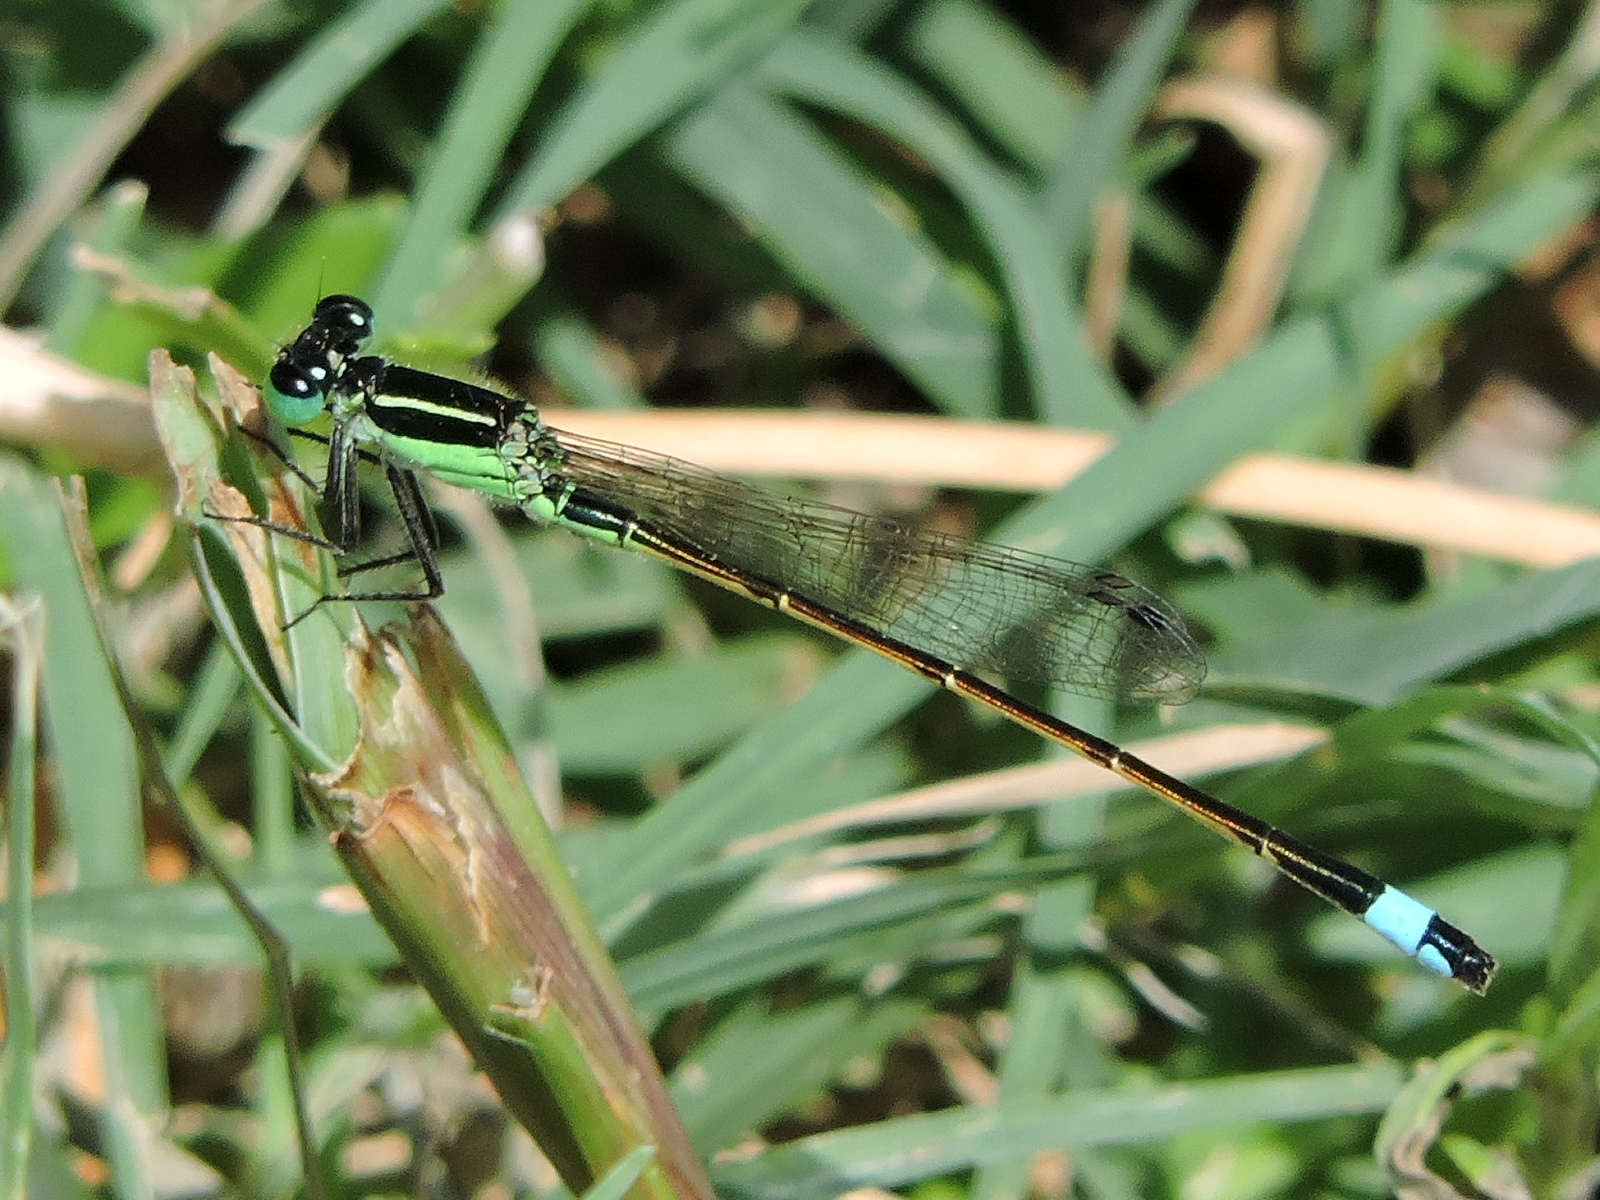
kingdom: Animalia
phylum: Arthropoda
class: Insecta
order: Odonata
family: Coenagrionidae
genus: Ischnura
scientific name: Ischnura ramburii
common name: Rambur's forktail
